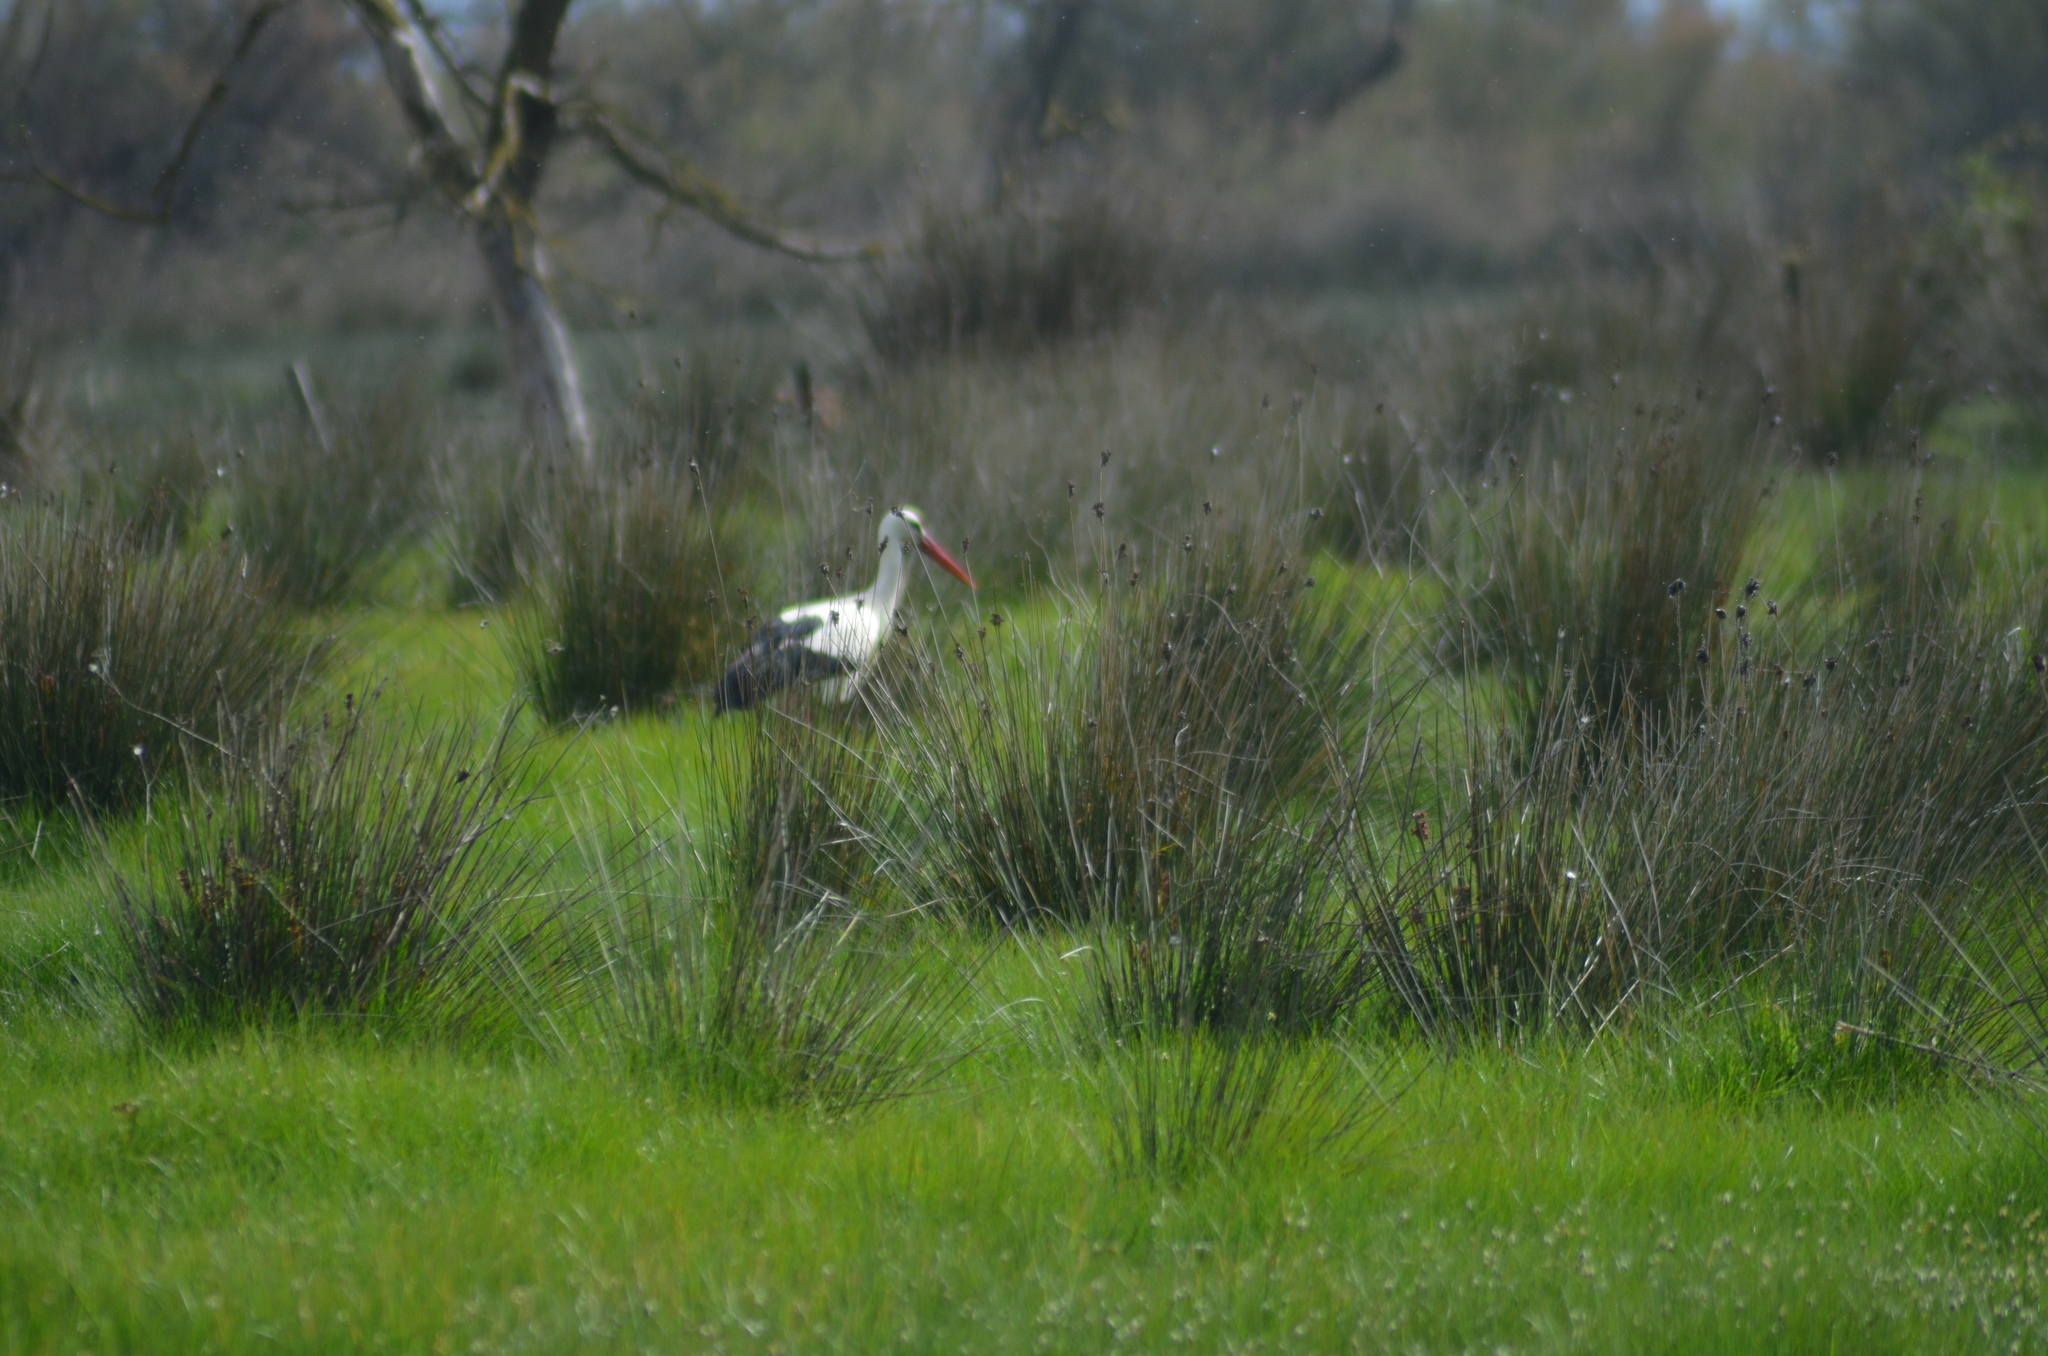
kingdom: Animalia
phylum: Chordata
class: Aves
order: Ciconiiformes
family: Ciconiidae
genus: Ciconia
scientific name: Ciconia ciconia
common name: White stork
